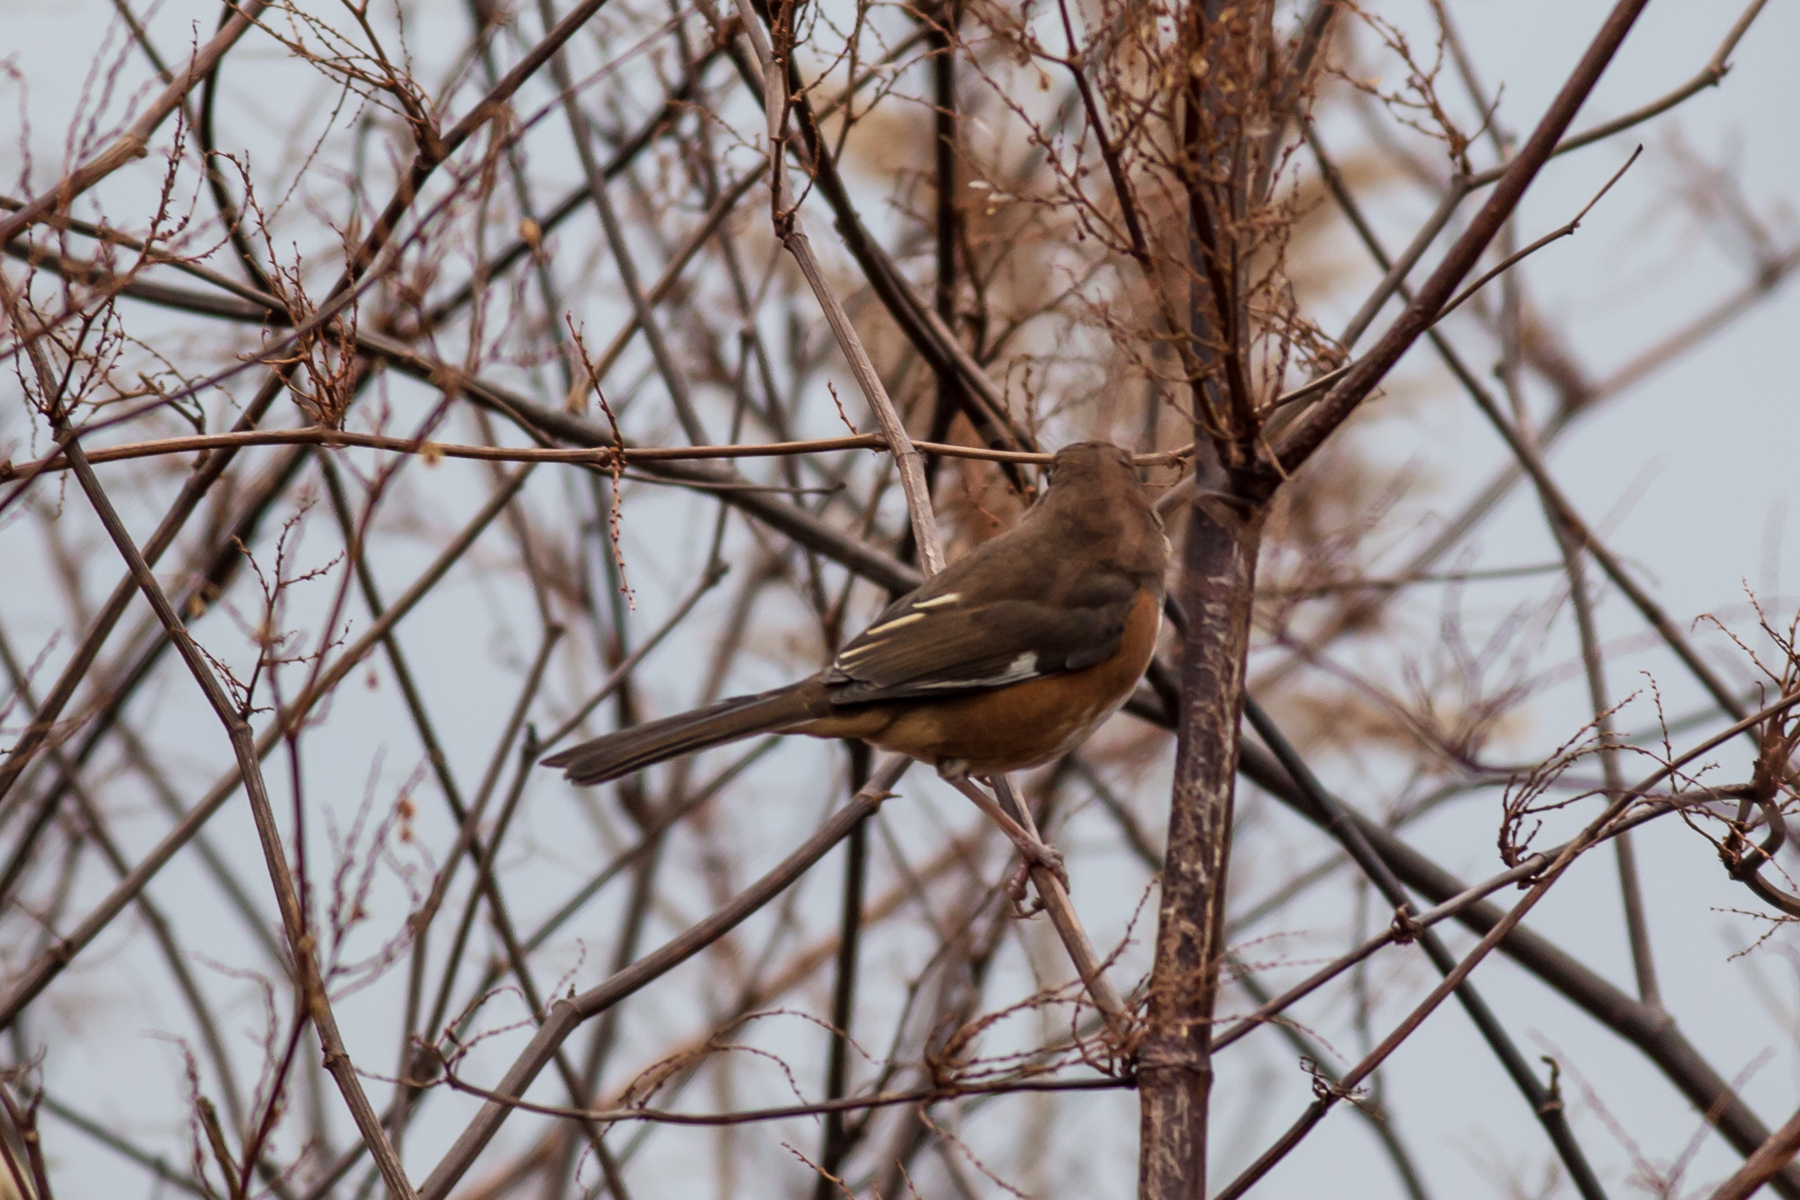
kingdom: Animalia
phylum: Chordata
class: Aves
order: Passeriformes
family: Passerellidae
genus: Pipilo
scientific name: Pipilo erythrophthalmus
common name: Eastern towhee
